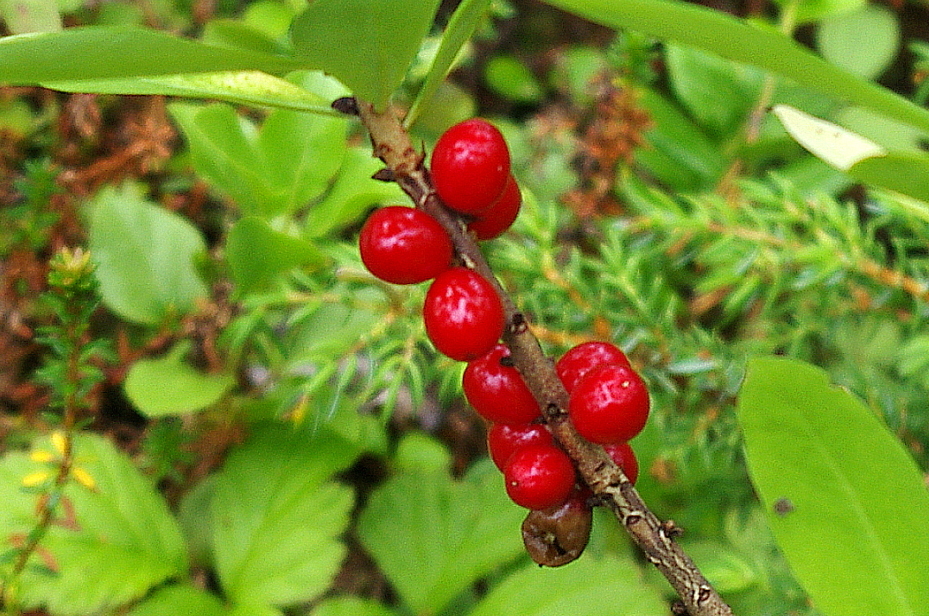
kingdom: Plantae
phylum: Tracheophyta
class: Magnoliopsida
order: Malvales
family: Thymelaeaceae
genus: Daphne
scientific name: Daphne mezereum
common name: Mezereon
